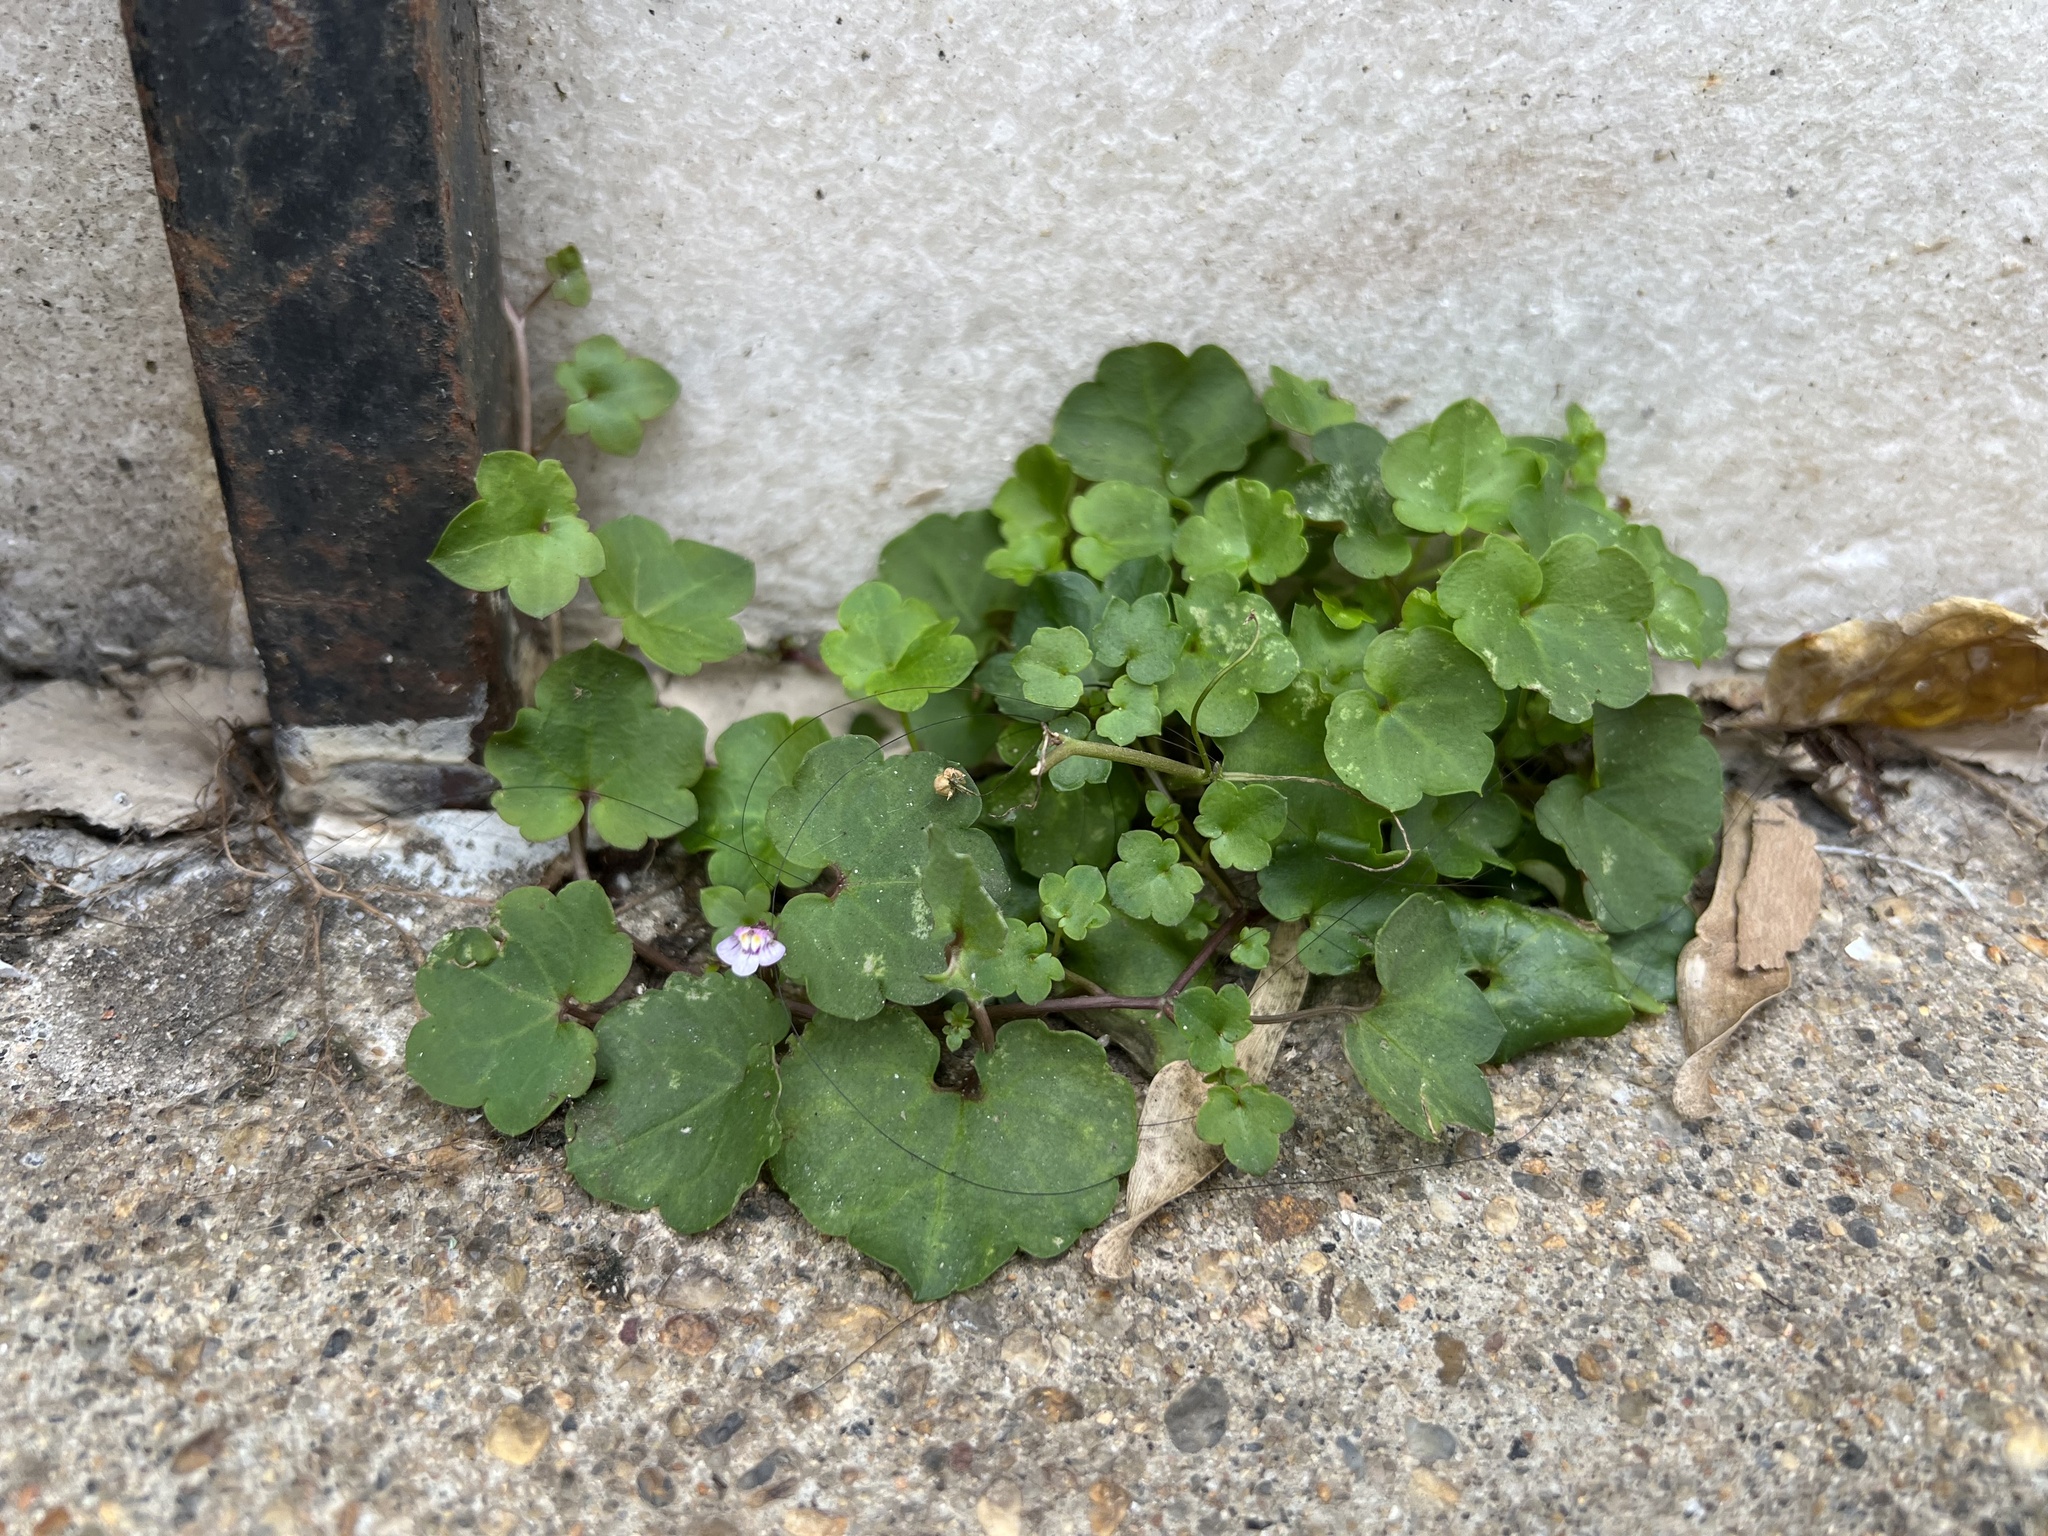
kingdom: Plantae
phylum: Tracheophyta
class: Magnoliopsida
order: Lamiales
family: Plantaginaceae
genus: Cymbalaria
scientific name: Cymbalaria muralis
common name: Ivy-leaved toadflax
